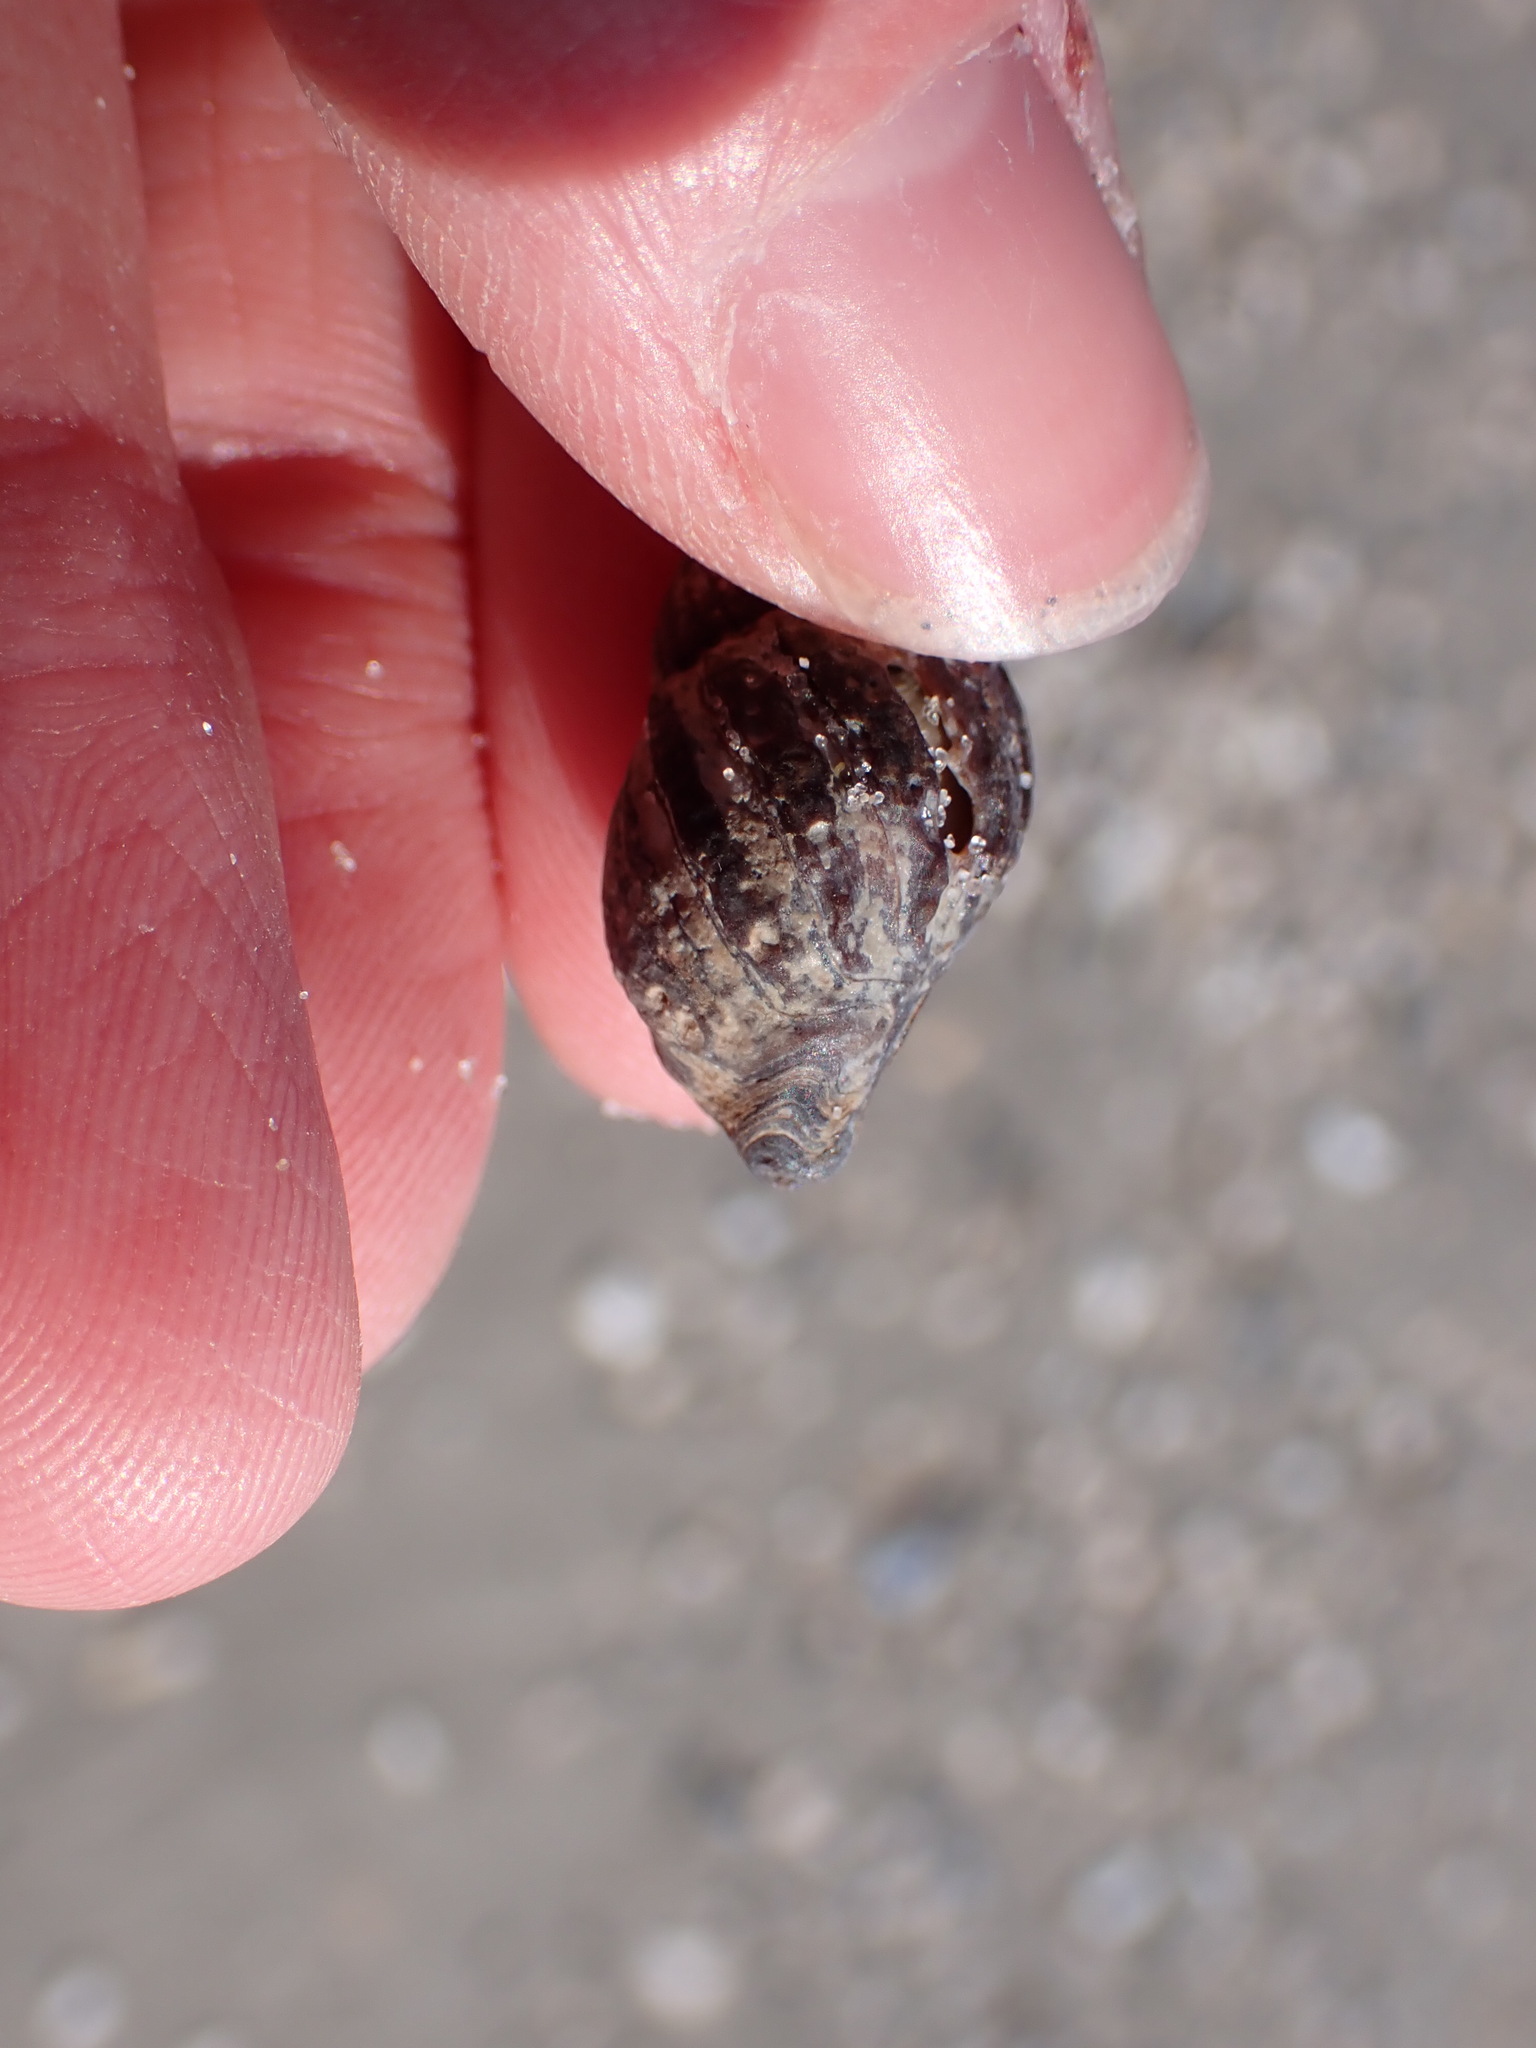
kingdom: Animalia
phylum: Mollusca
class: Gastropoda
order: Neogastropoda
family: Nassariidae
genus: Ilyanassa
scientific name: Ilyanassa obsoleta
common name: Eastern mudsnail
